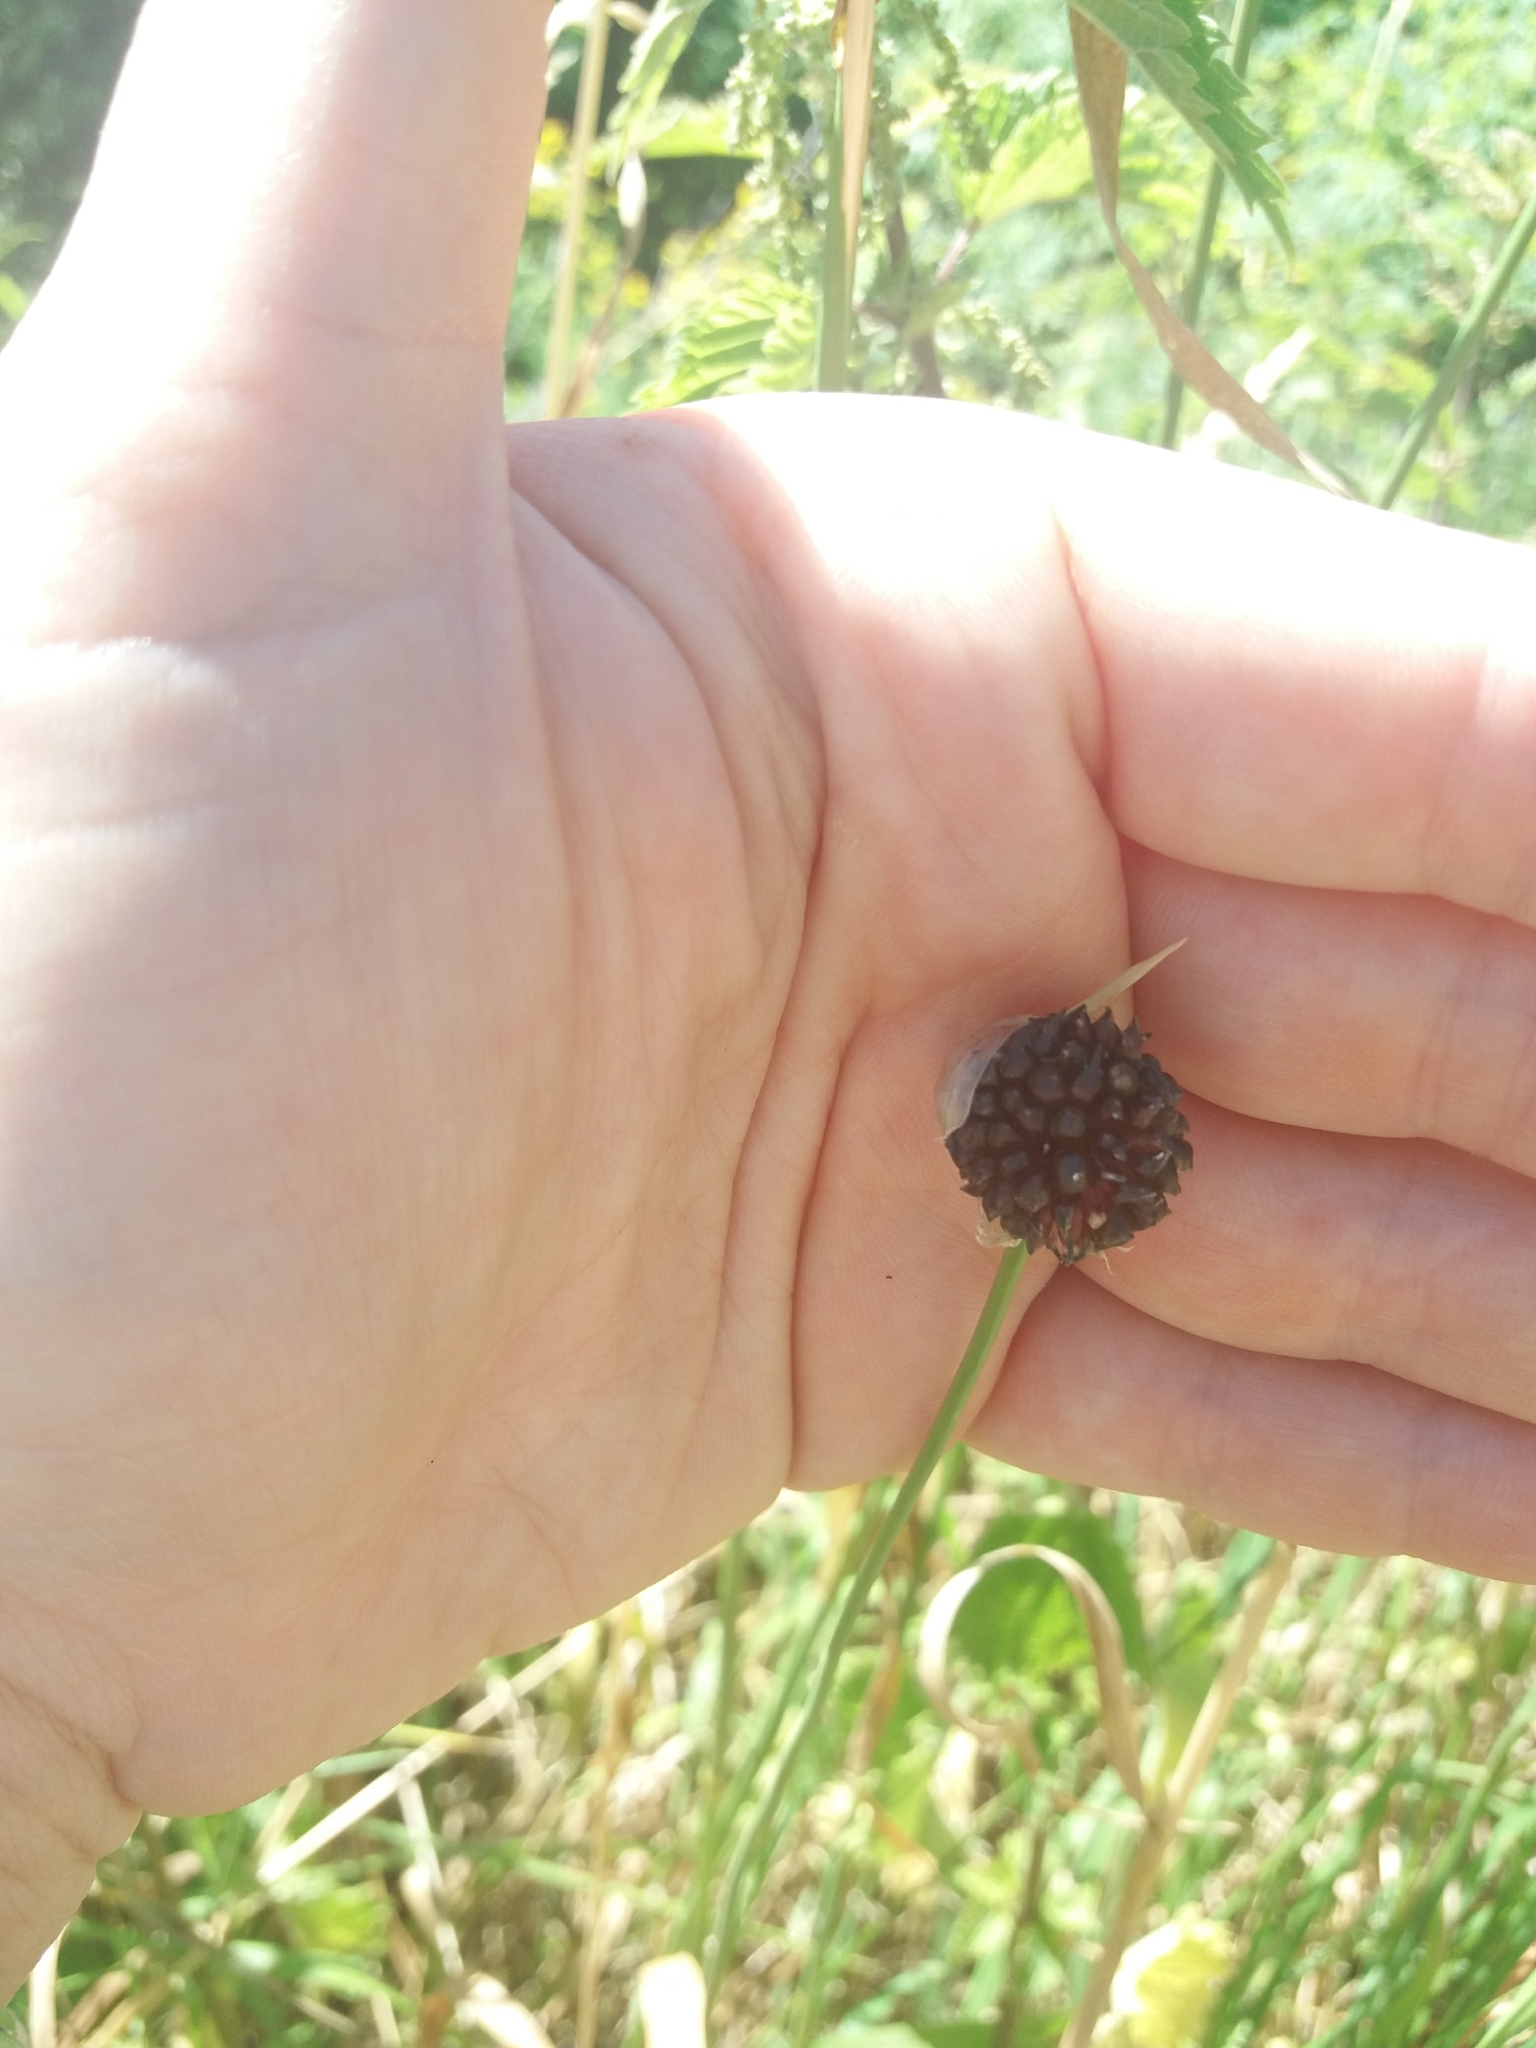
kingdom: Plantae
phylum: Tracheophyta
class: Liliopsida
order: Asparagales
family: Amaryllidaceae
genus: Allium
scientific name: Allium vineale
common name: Crow garlic
